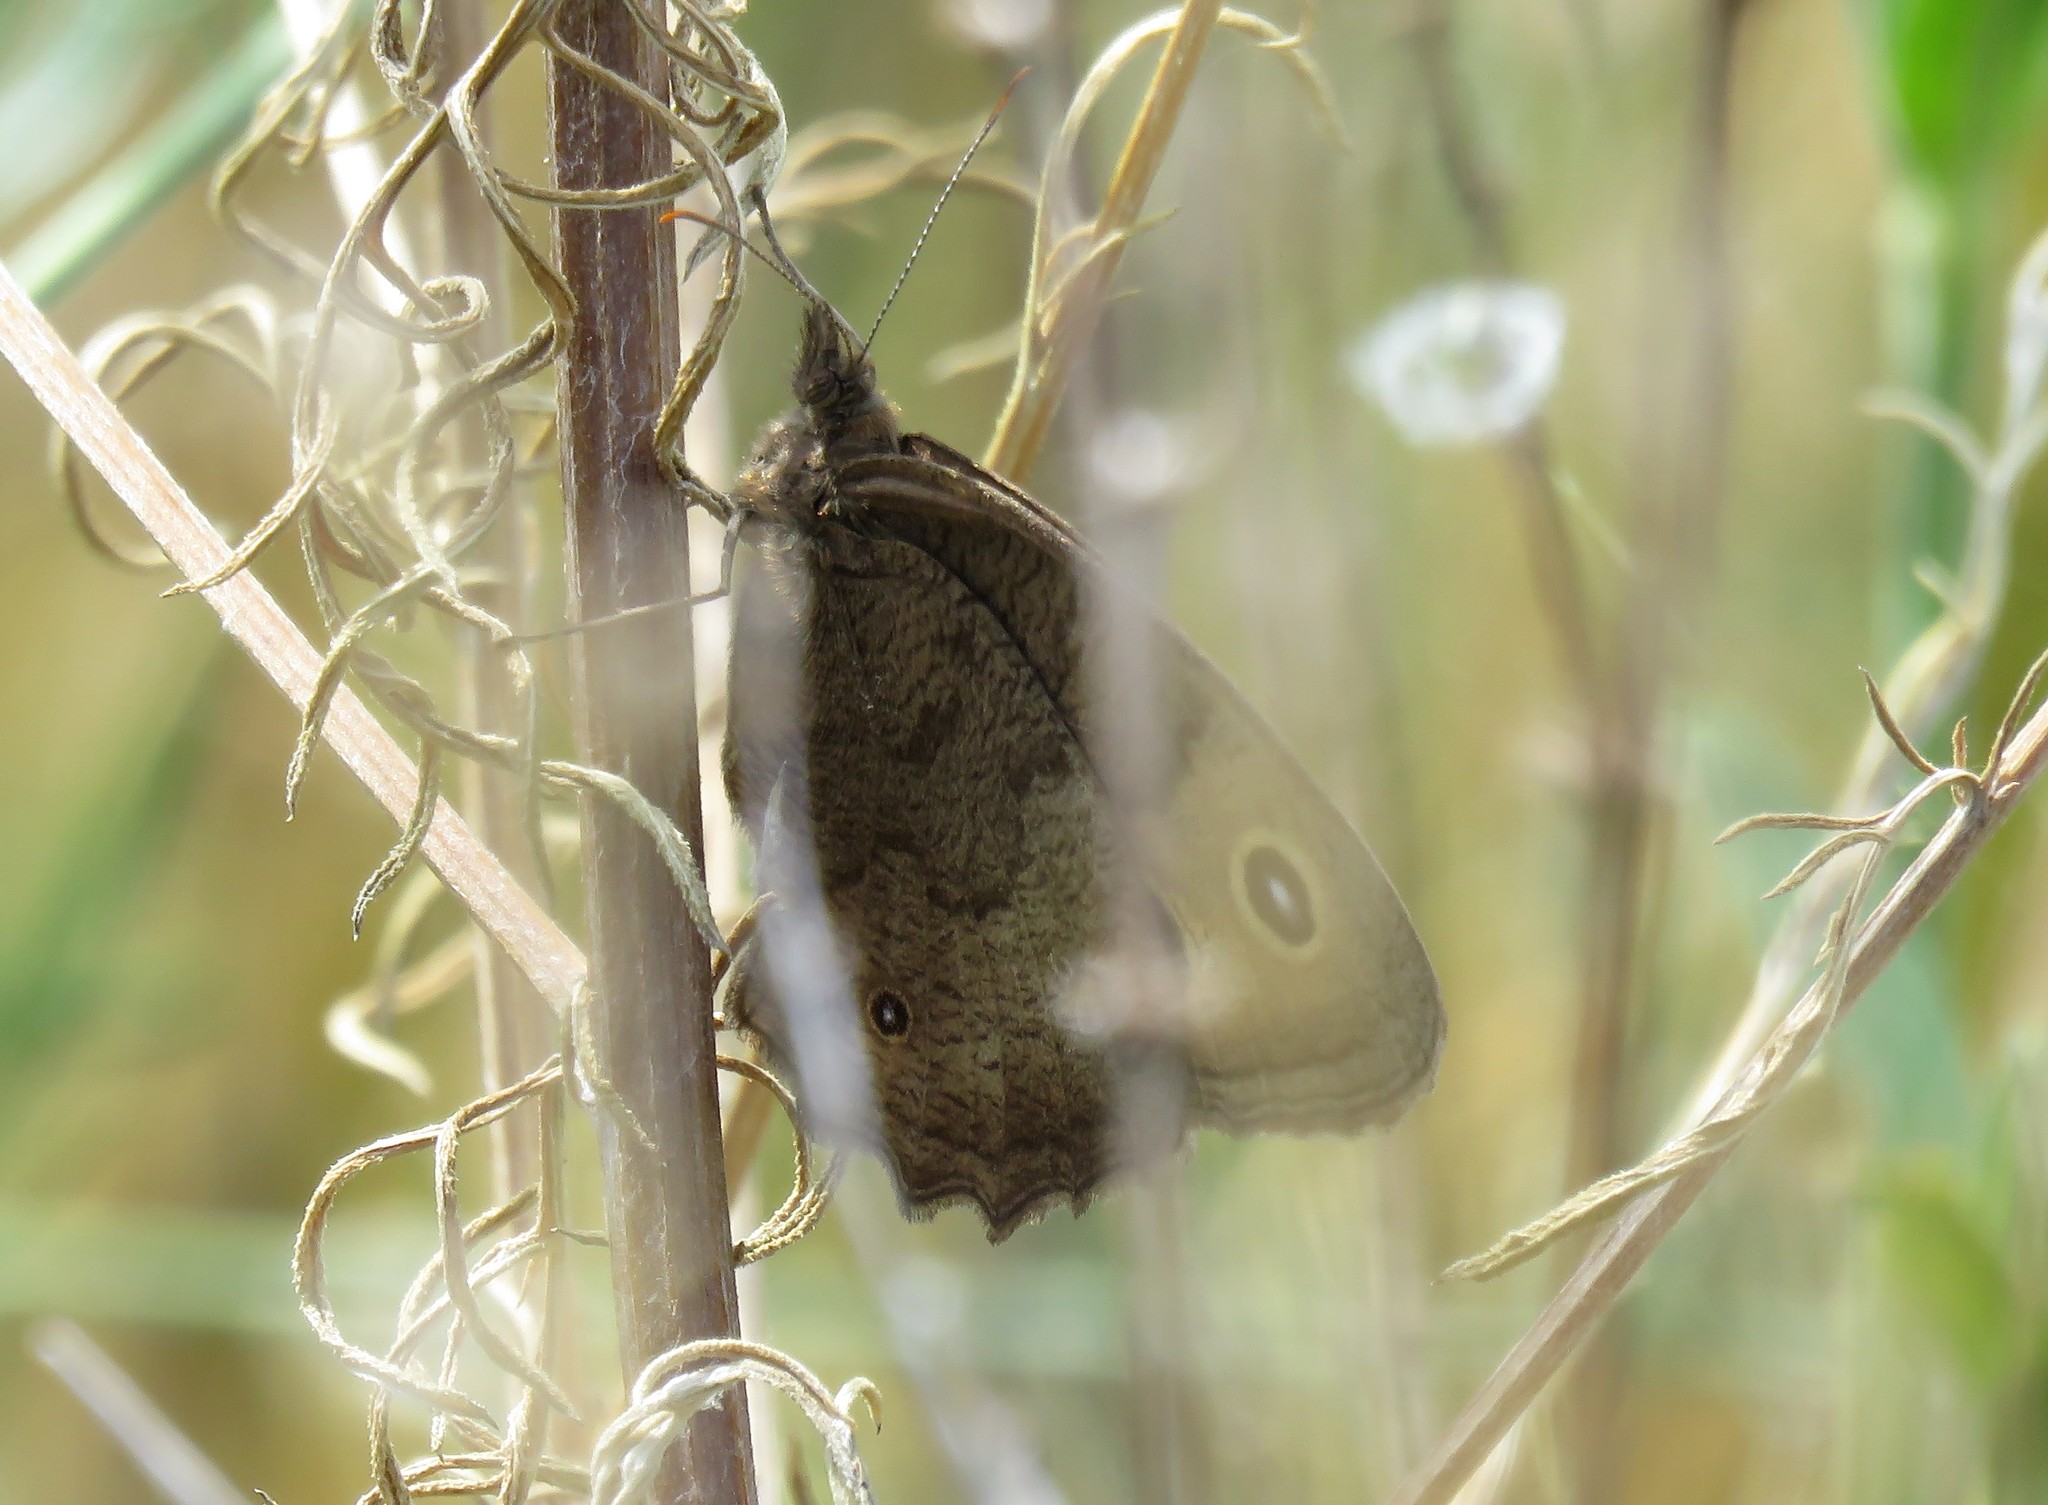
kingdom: Animalia
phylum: Arthropoda
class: Insecta
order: Lepidoptera
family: Nymphalidae
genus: Cercyonis
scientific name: Cercyonis pegala
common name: Common wood-nymph
